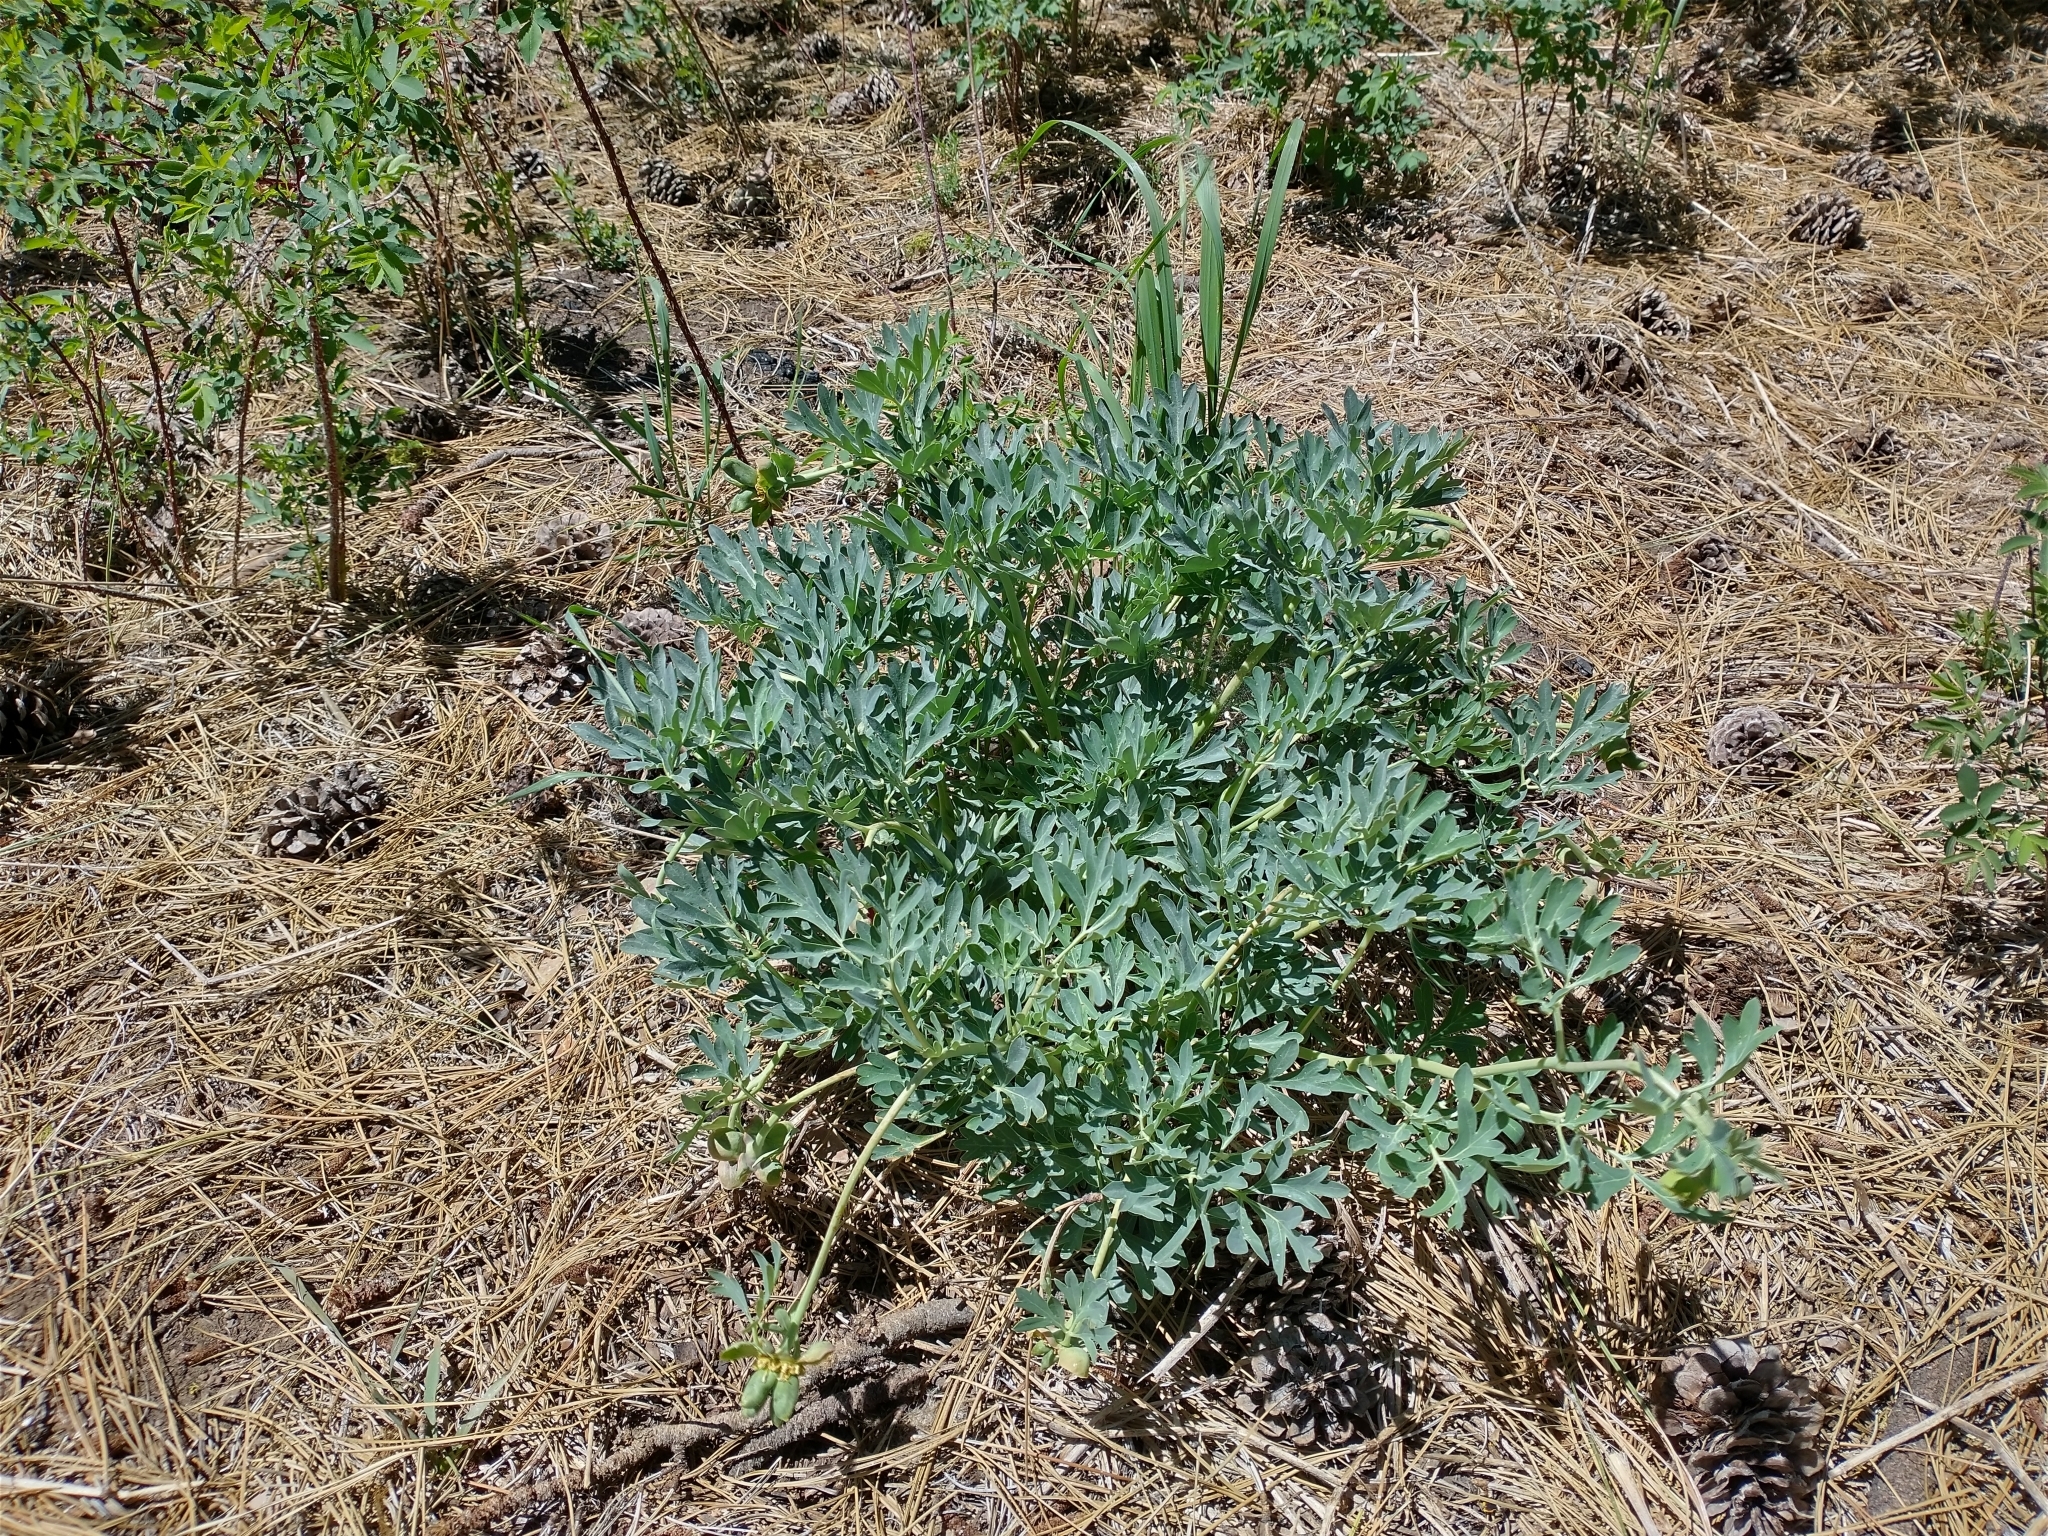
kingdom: Plantae
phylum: Tracheophyta
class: Magnoliopsida
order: Saxifragales
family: Paeoniaceae
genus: Paeonia
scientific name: Paeonia brownii
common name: Brown's peony
